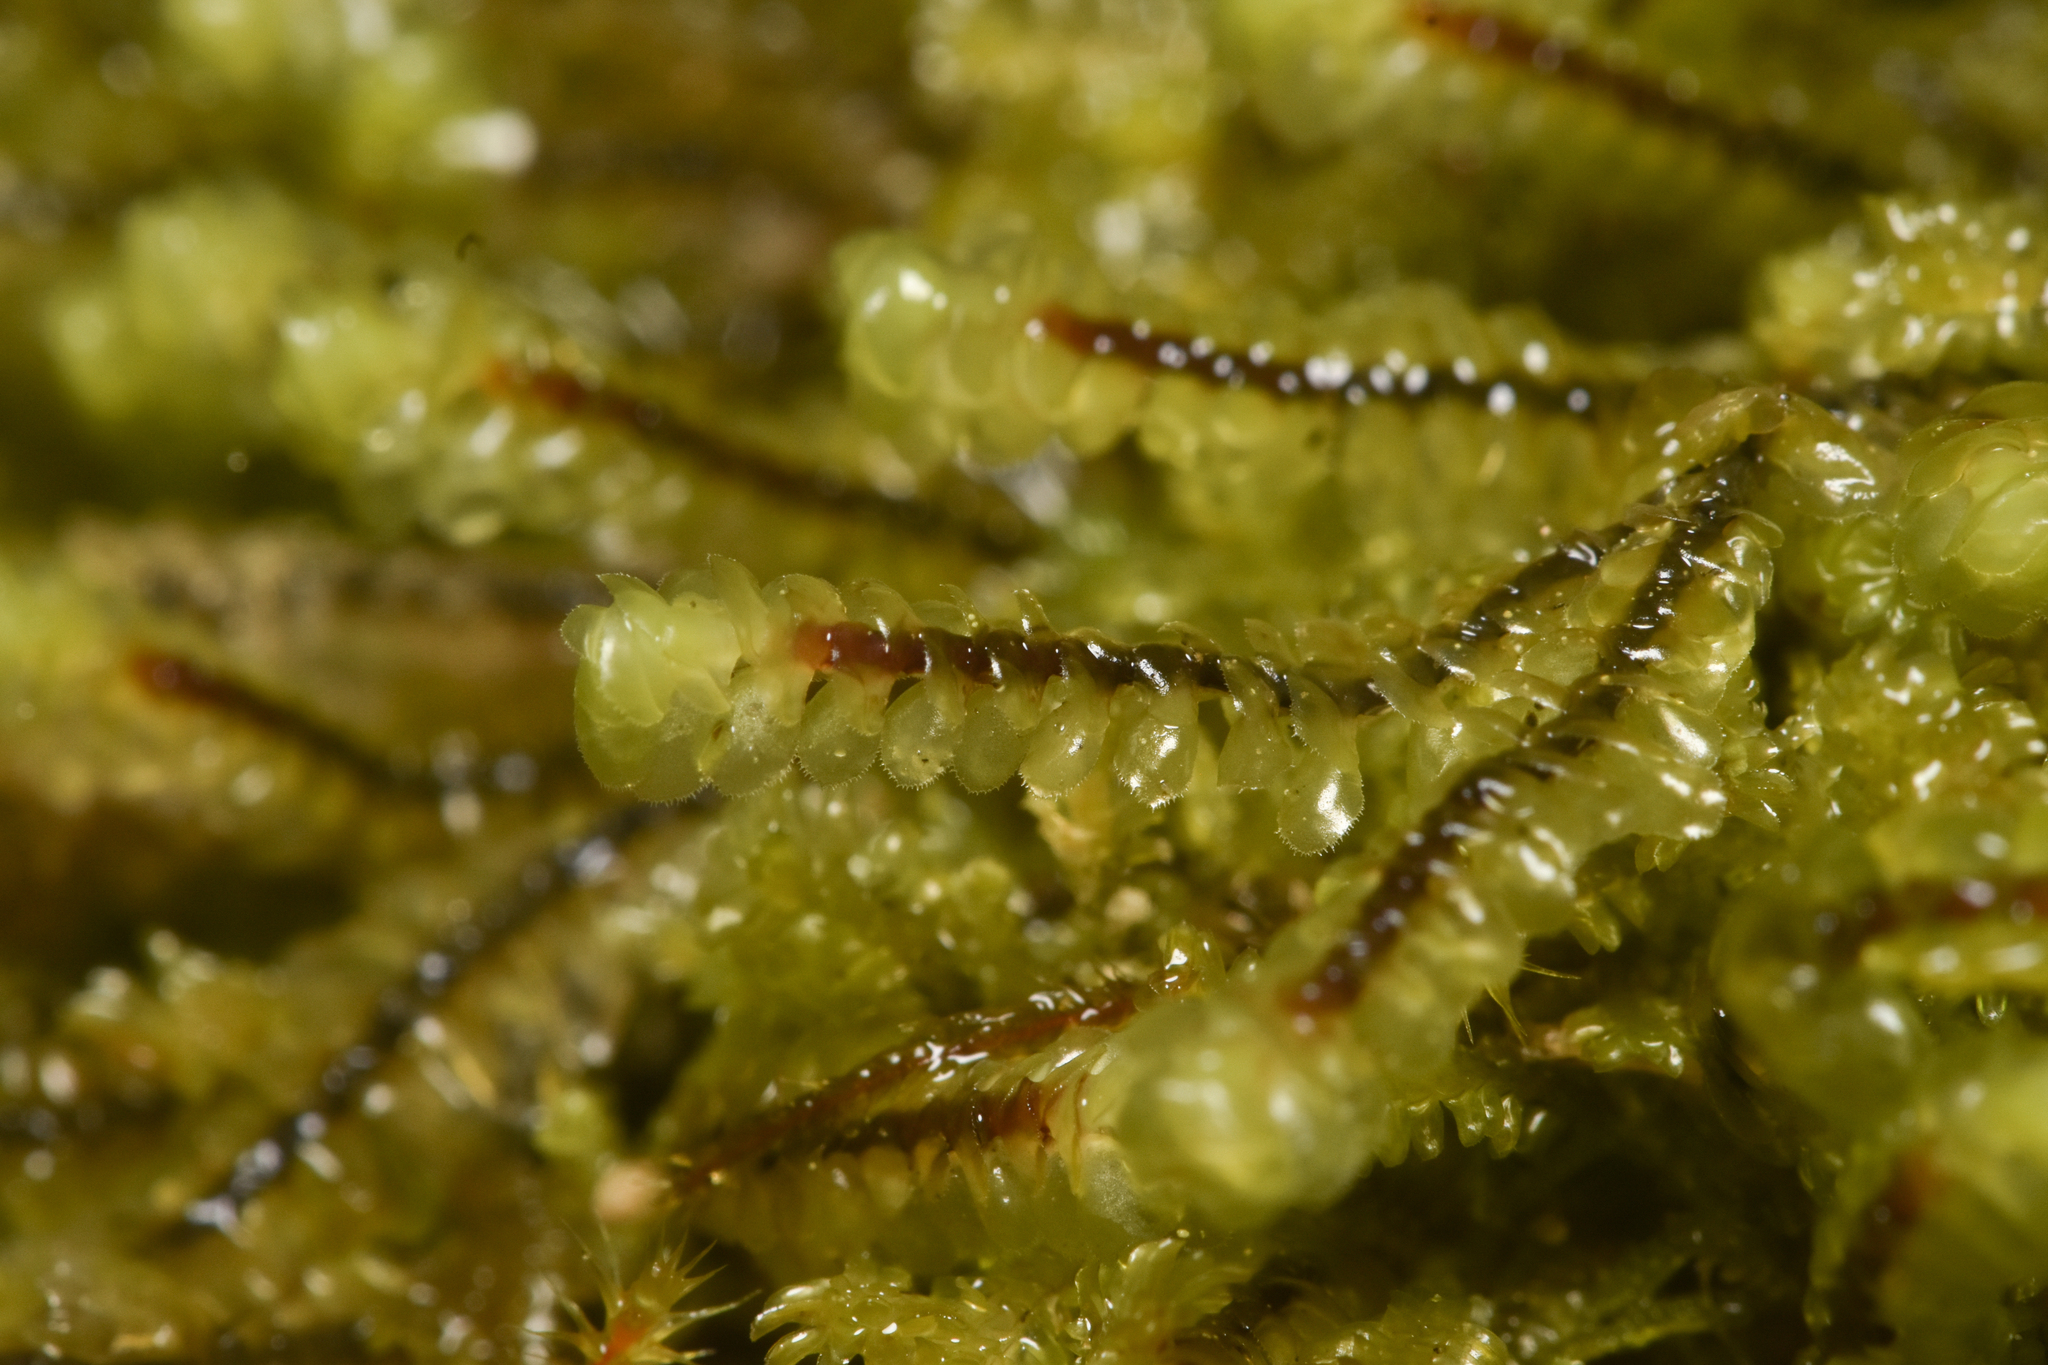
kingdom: Plantae
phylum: Marchantiophyta
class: Jungermanniopsida
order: Jungermanniales
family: Scapaniaceae
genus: Scapania
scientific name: Scapania bolanderi
